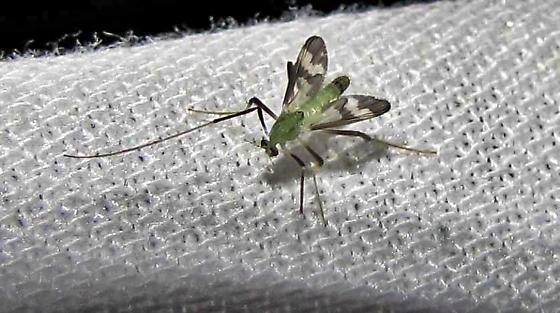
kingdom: Animalia
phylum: Arthropoda
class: Insecta
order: Diptera
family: Chironomidae
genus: Stenochironomus
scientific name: Stenochironomus hilaris
